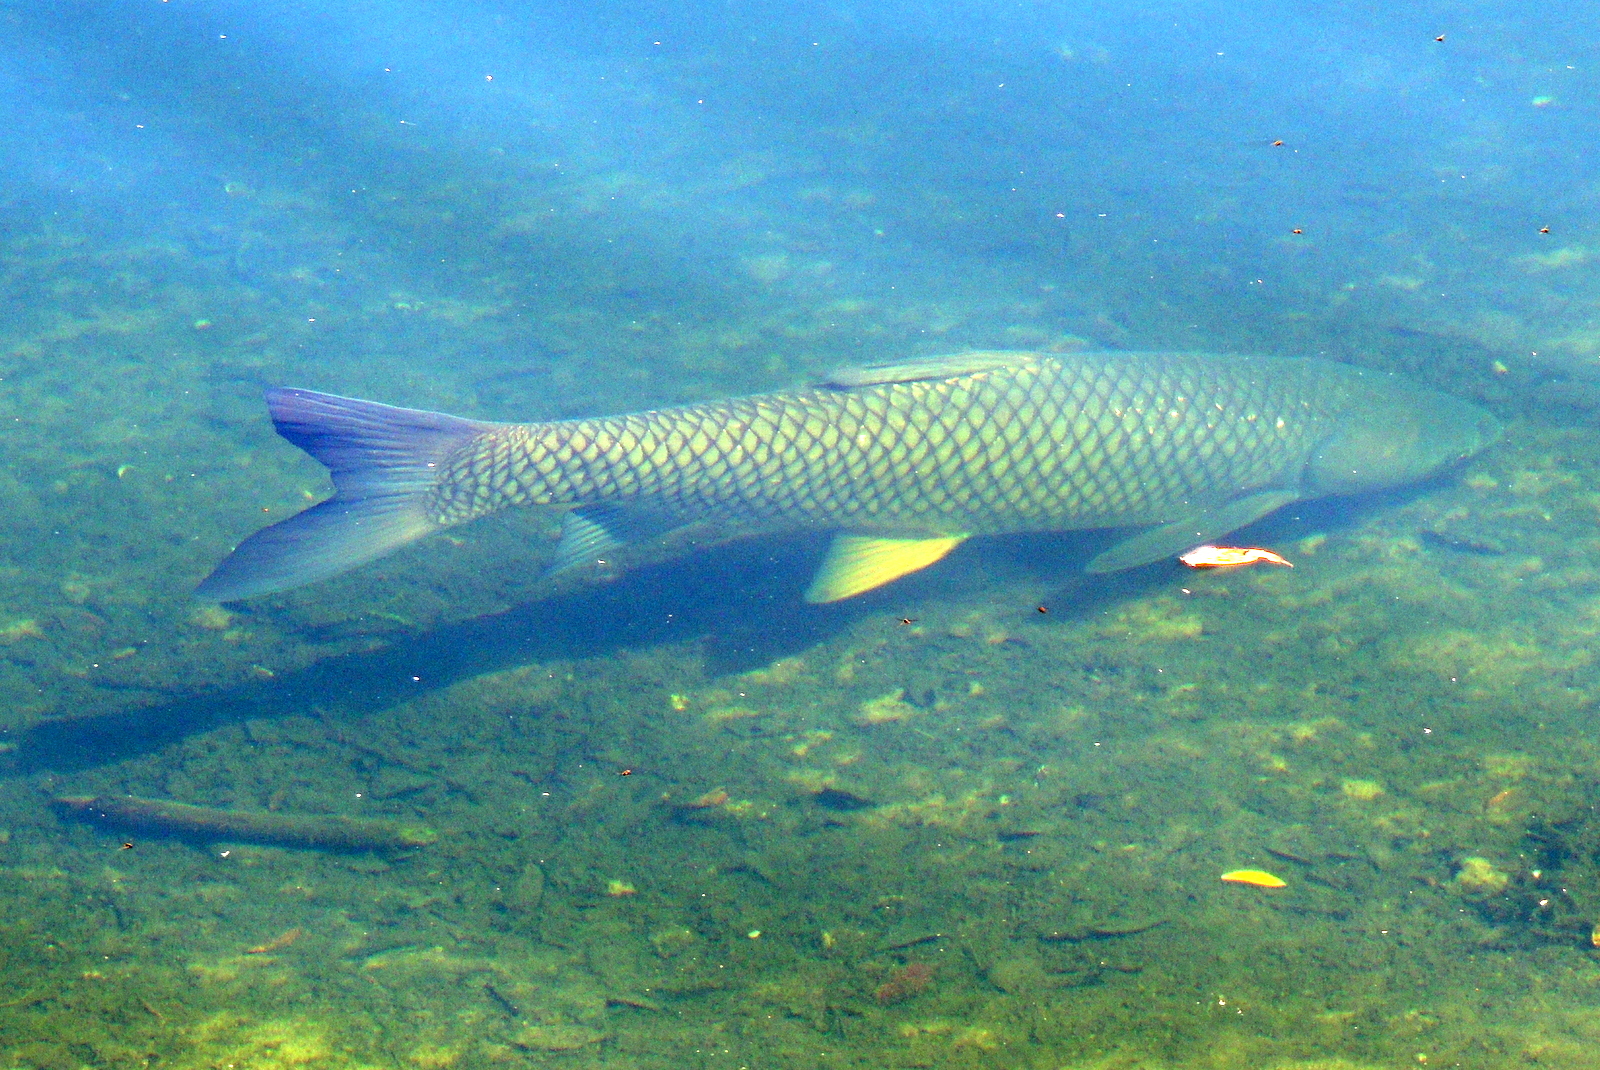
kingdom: Animalia
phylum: Chordata
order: Cypriniformes
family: Cyprinidae
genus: Ctenopharyngodon
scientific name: Ctenopharyngodon idella
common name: Grass carp
